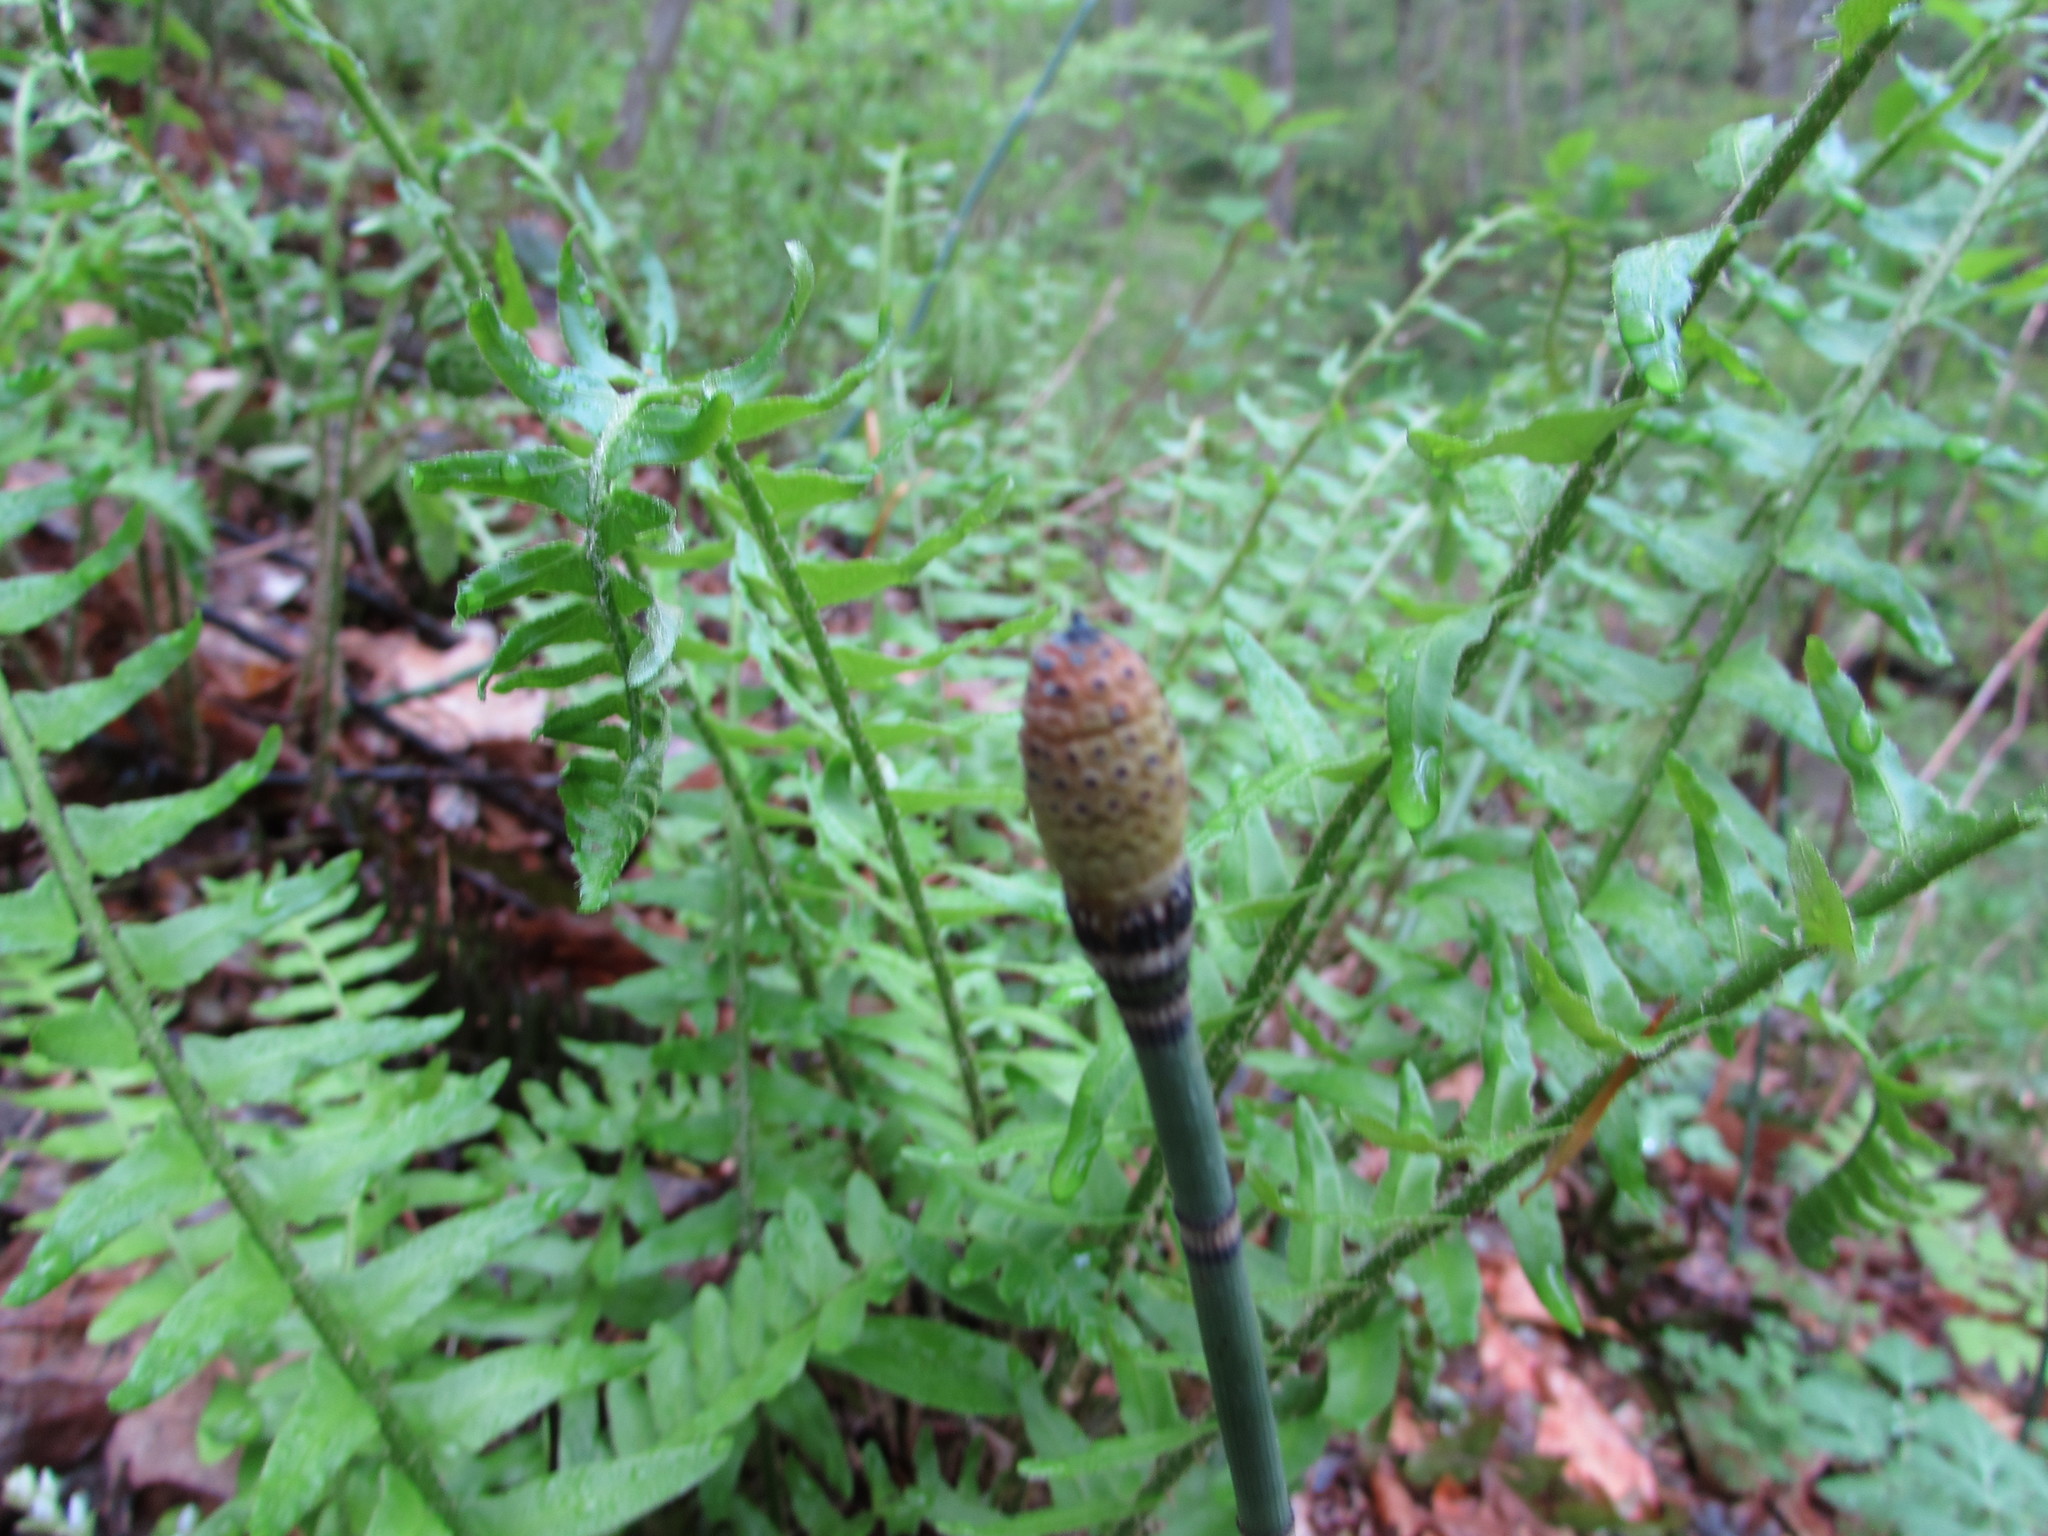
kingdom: Plantae
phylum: Tracheophyta
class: Polypodiopsida
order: Equisetales
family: Equisetaceae
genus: Equisetum
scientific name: Equisetum praealtum
